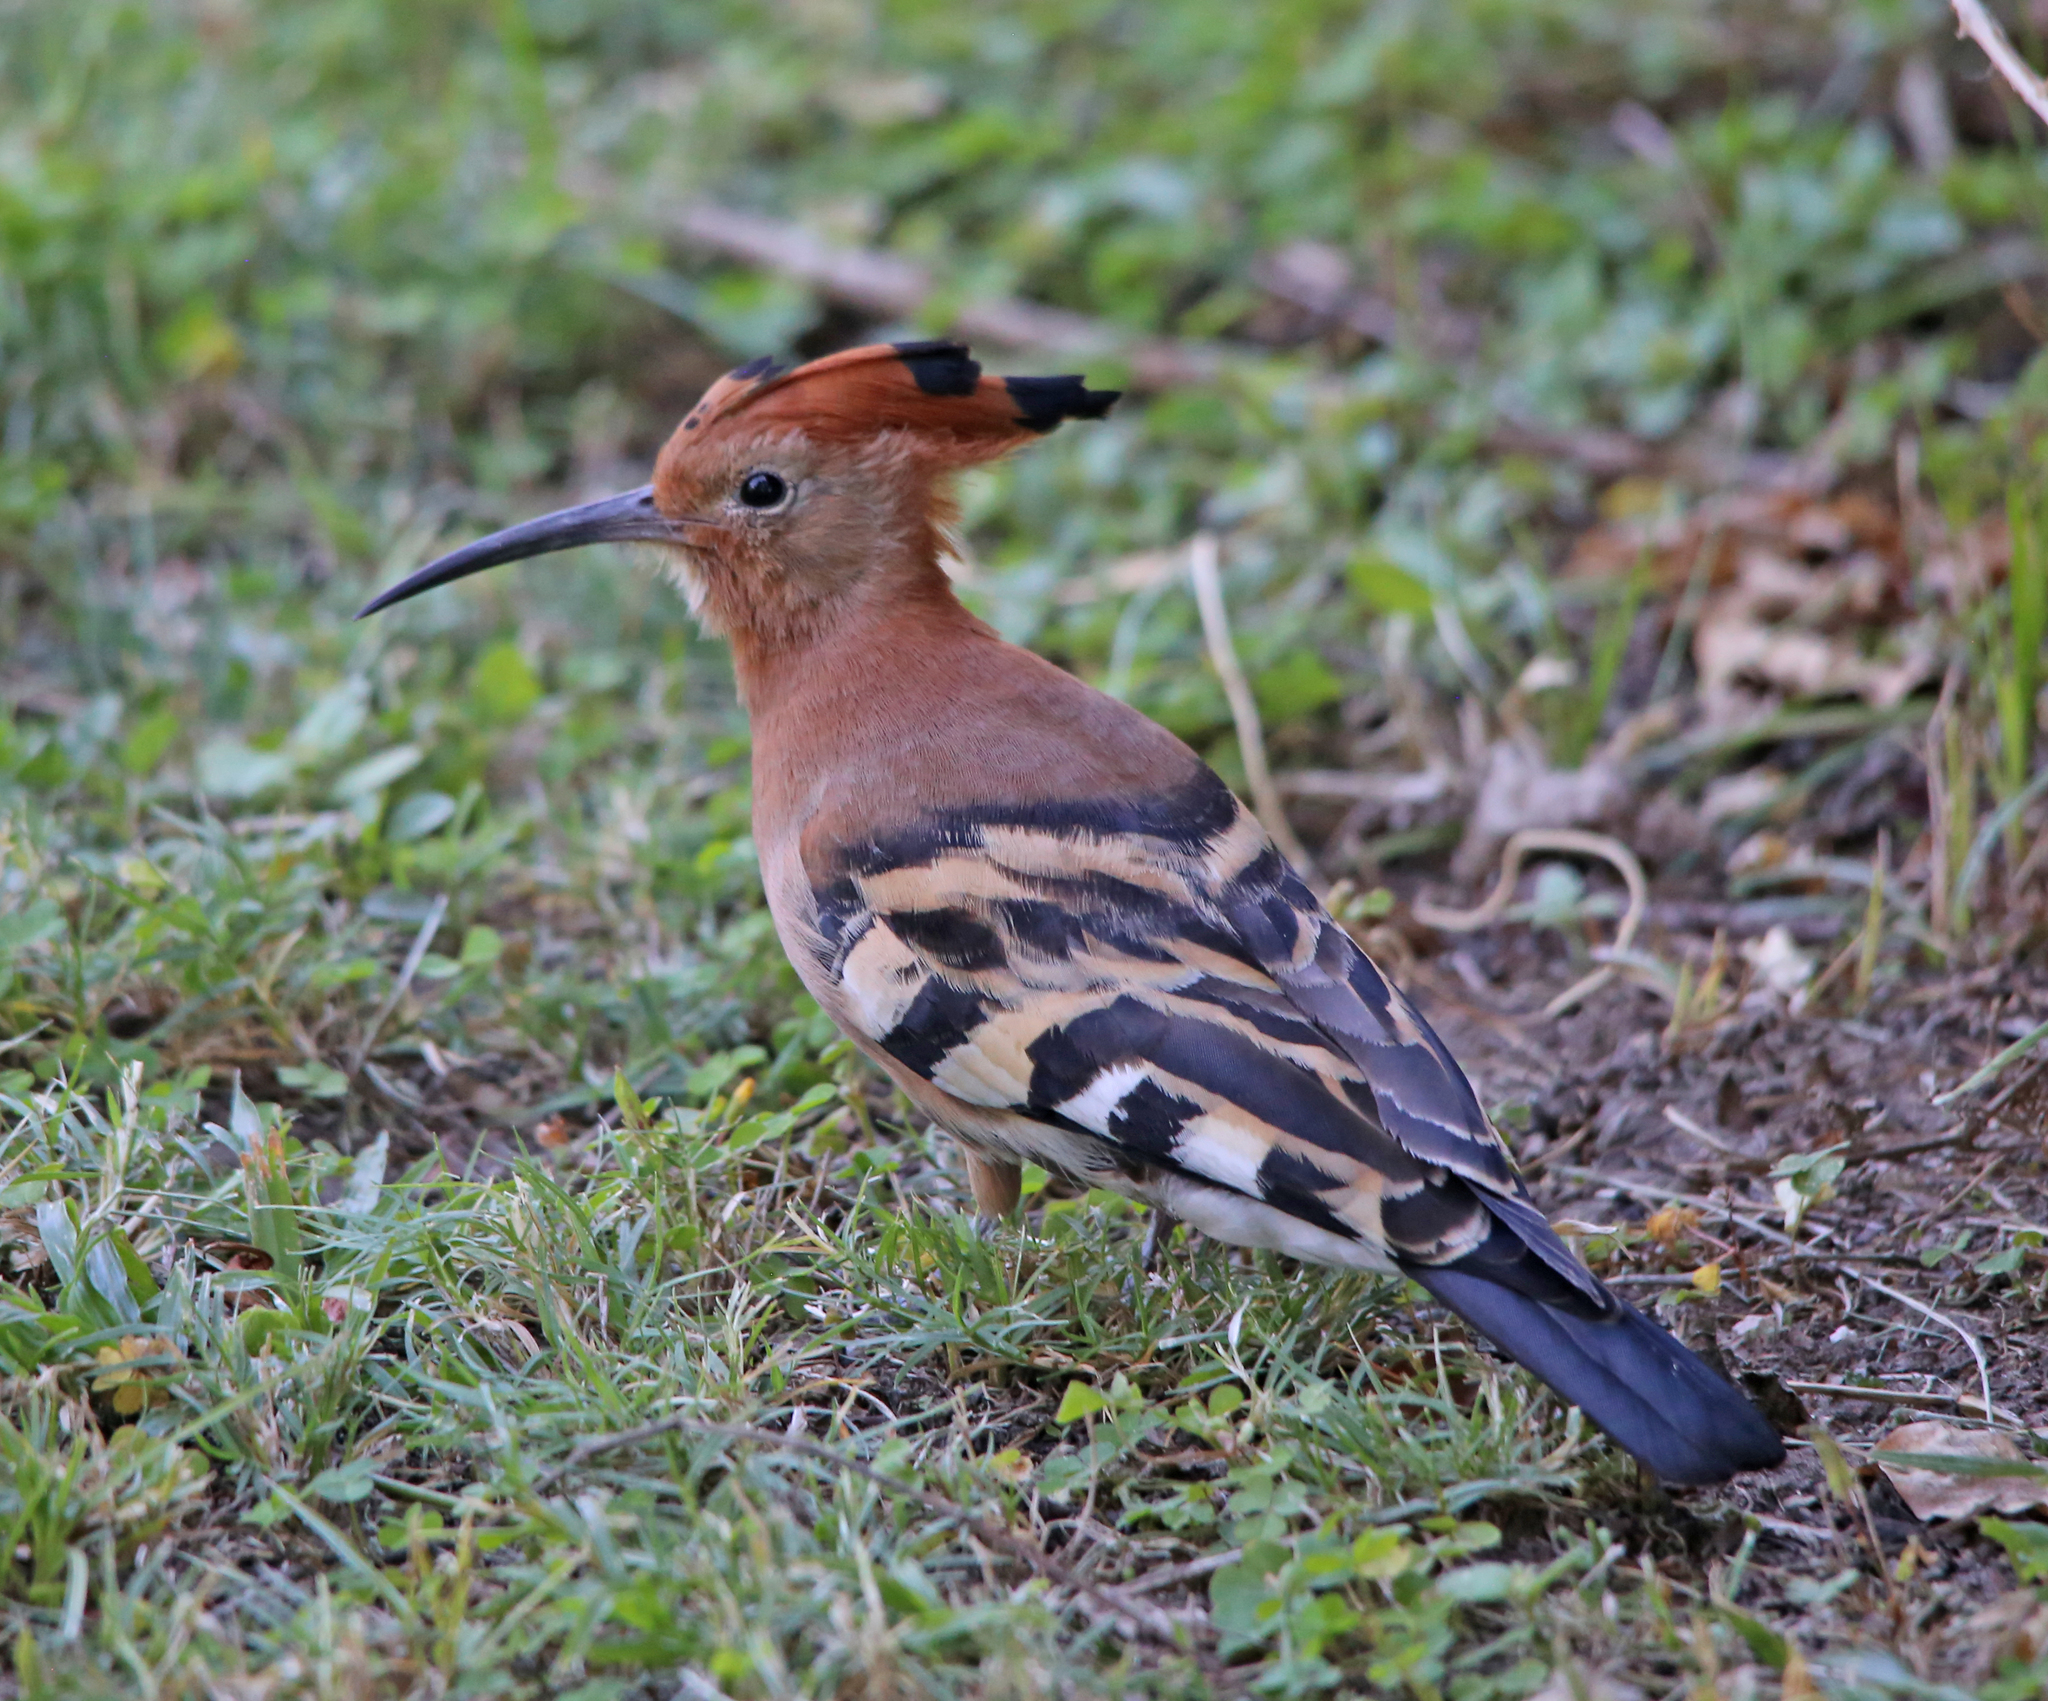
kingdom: Animalia
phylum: Chordata
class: Aves
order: Bucerotiformes
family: Upupidae
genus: Upupa
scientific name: Upupa africana
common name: African hoopoe
